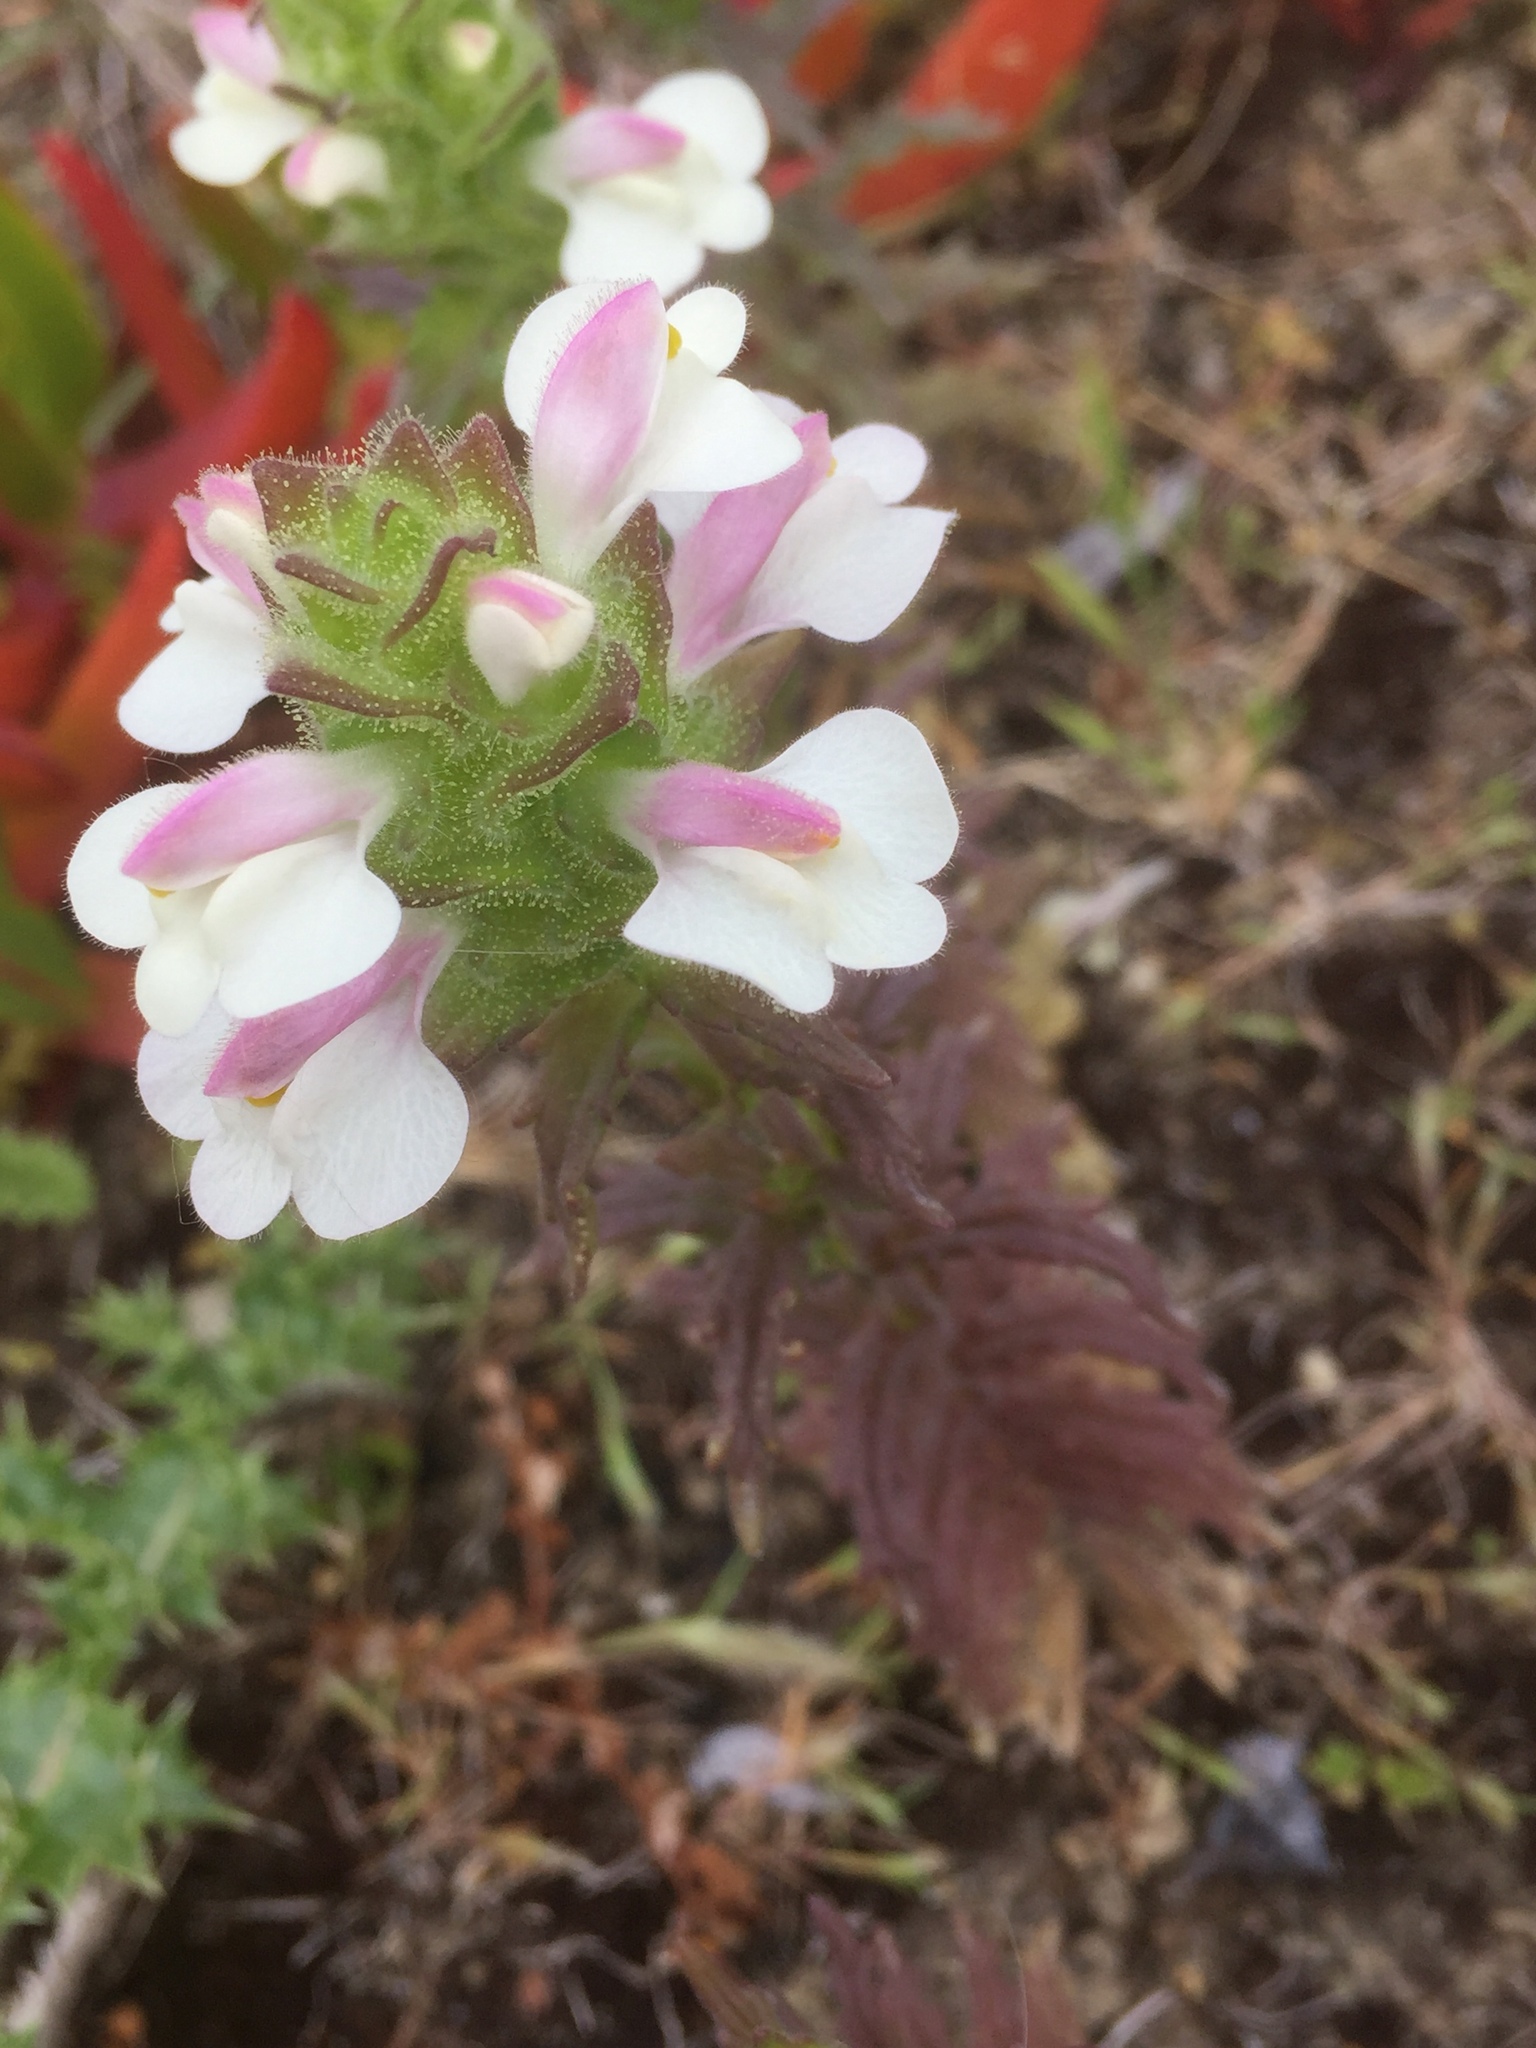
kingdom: Plantae
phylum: Tracheophyta
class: Magnoliopsida
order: Lamiales
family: Orobanchaceae
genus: Bellardia
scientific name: Bellardia trixago
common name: Mediterranean lineseed
